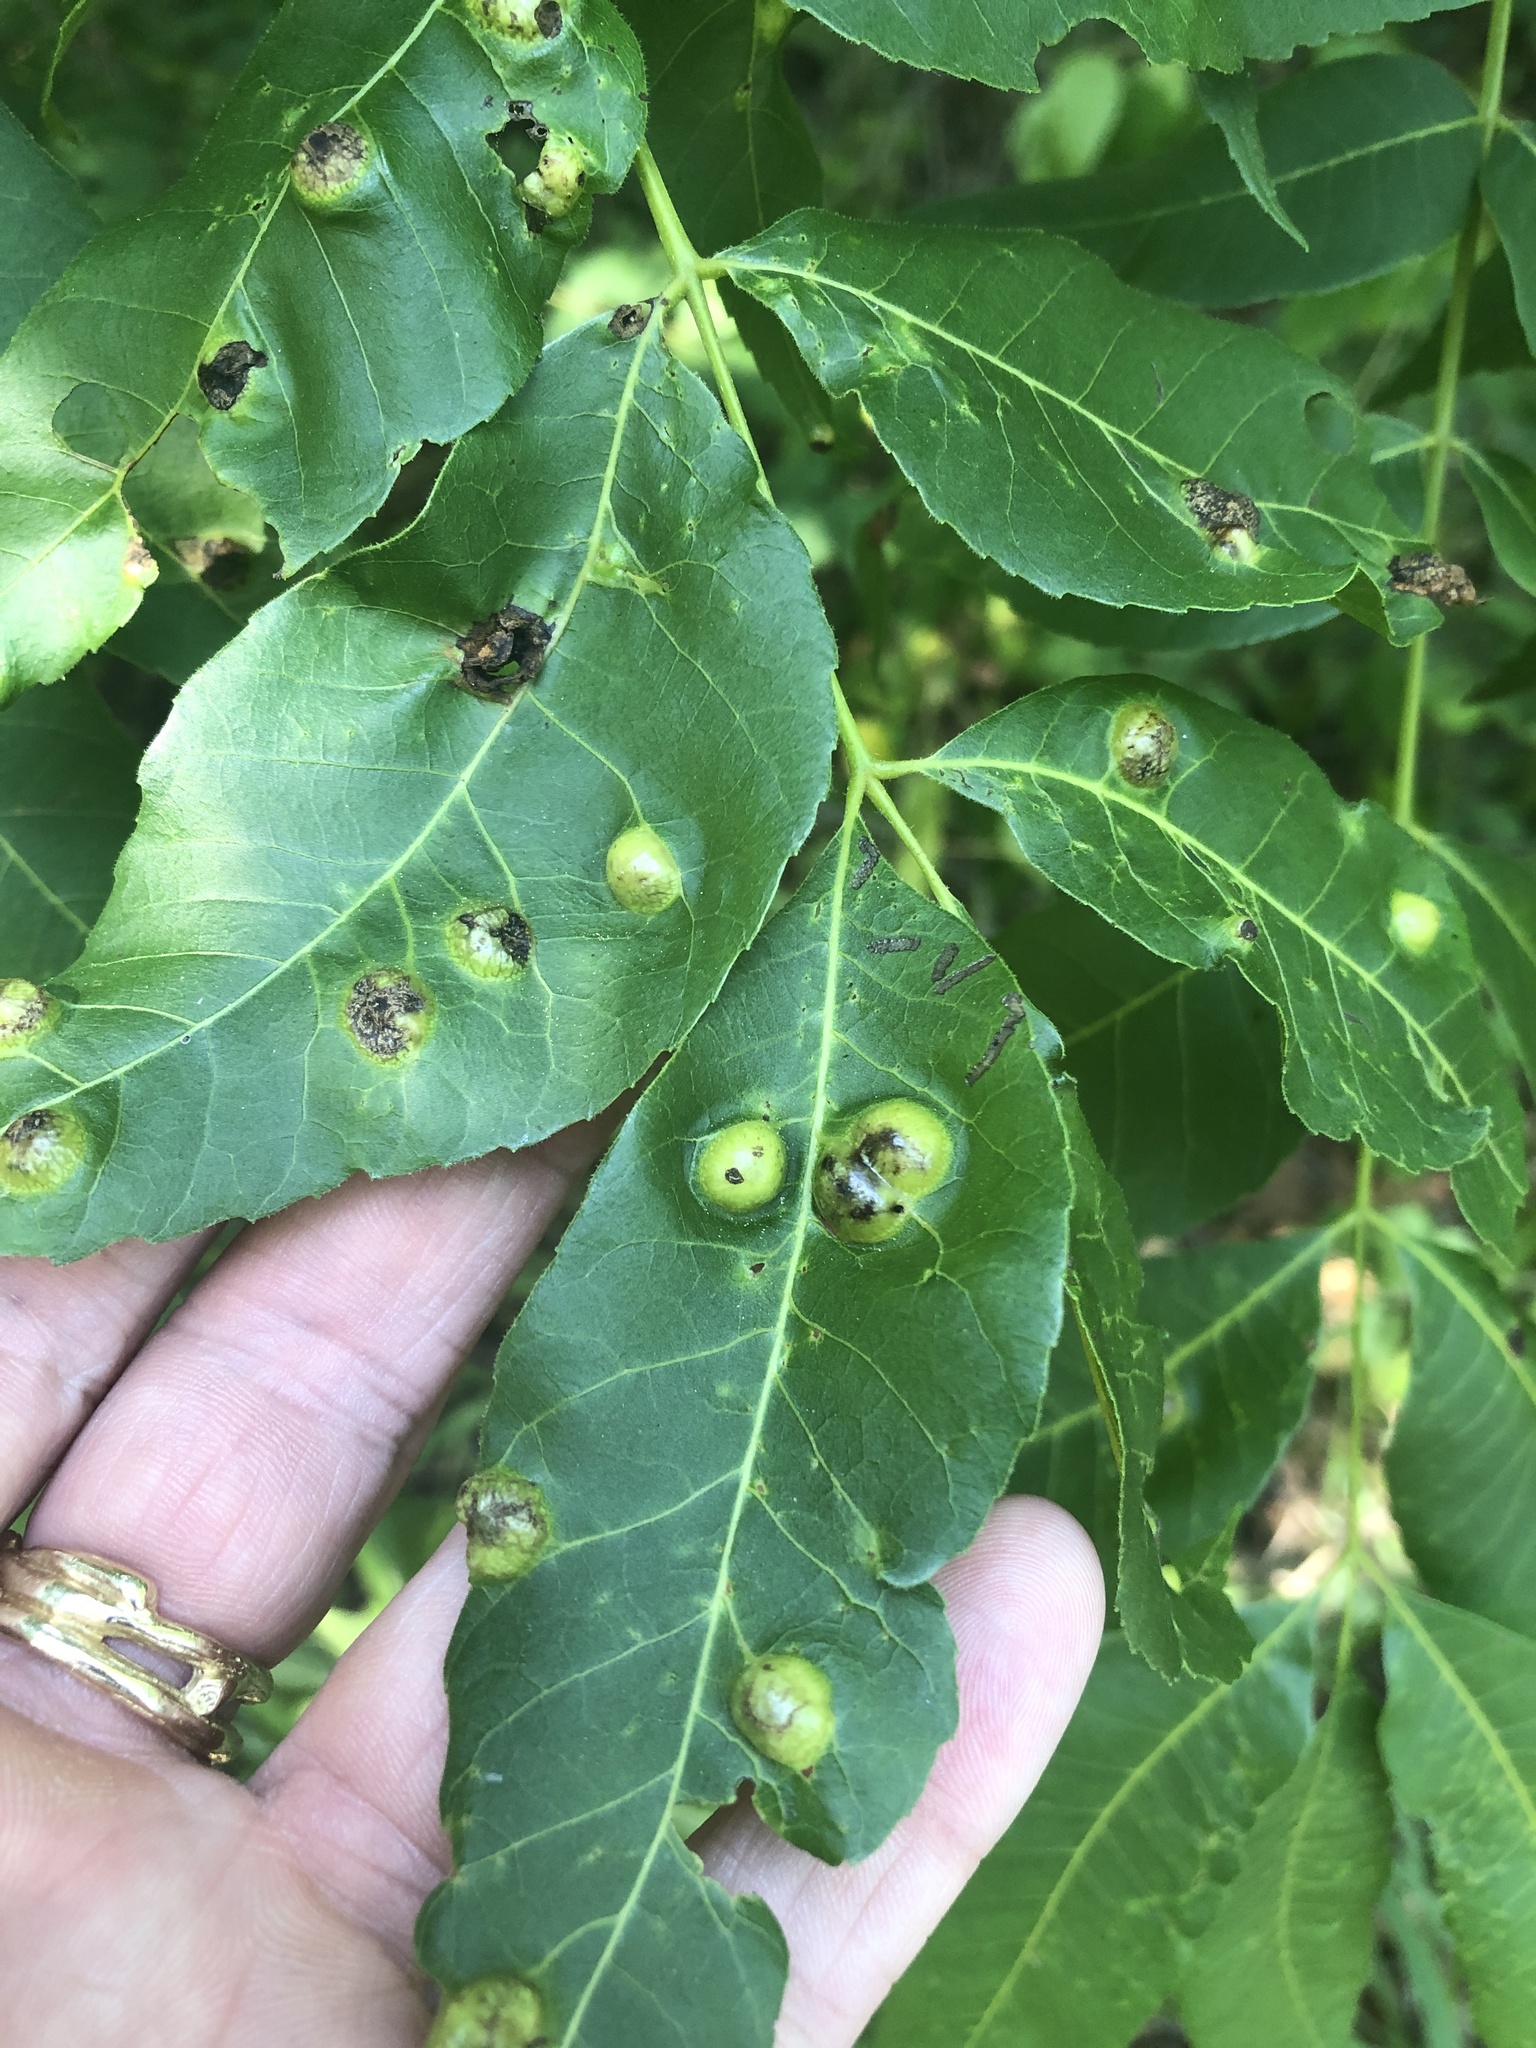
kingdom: Animalia
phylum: Arthropoda
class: Insecta
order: Hemiptera
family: Phylloxeridae
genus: Phylloxera
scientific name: Phylloxera russellae
